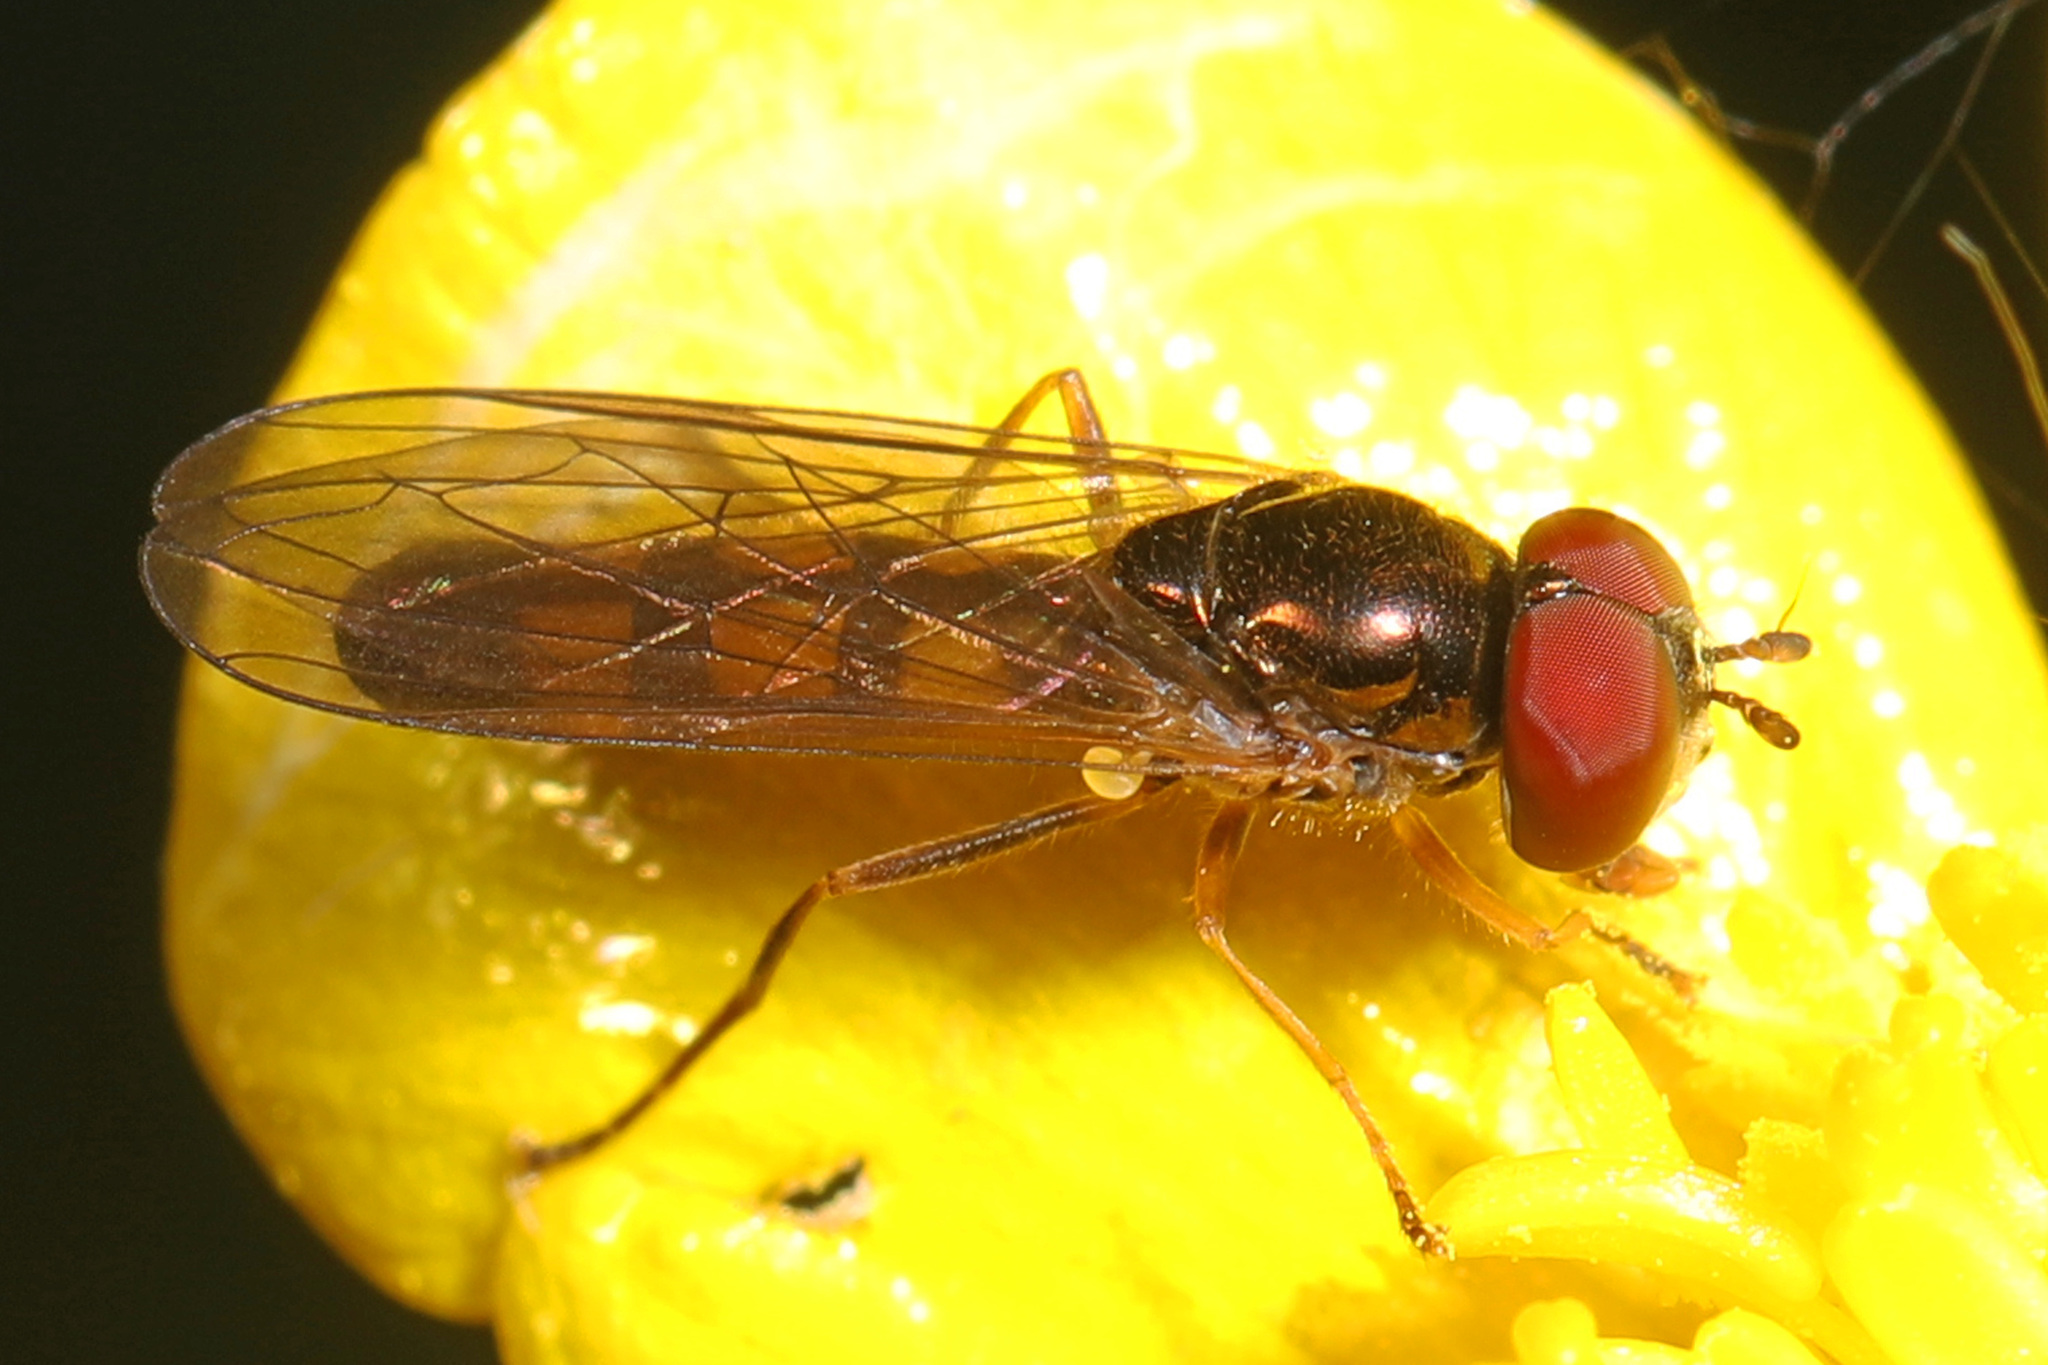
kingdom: Animalia
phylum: Arthropoda
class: Insecta
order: Diptera
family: Syrphidae
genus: Melanostoma
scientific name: Melanostoma mellina
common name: Hover fly
